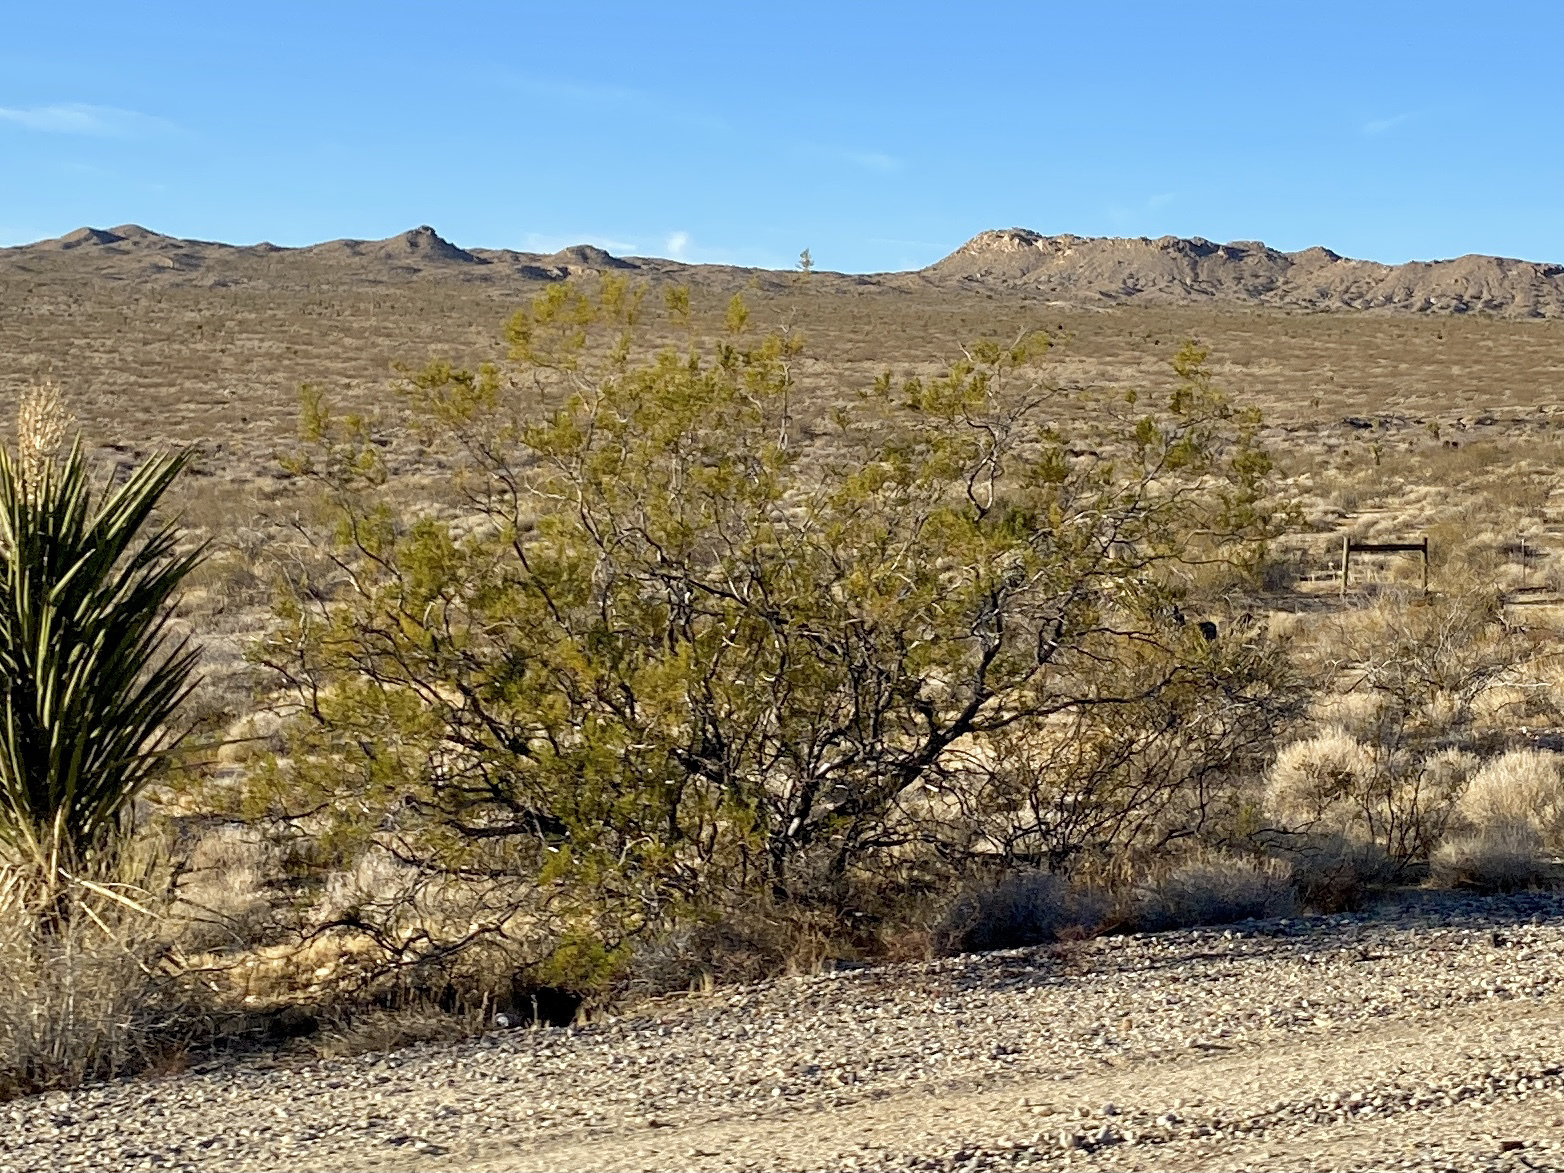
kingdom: Plantae
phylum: Tracheophyta
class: Magnoliopsida
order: Zygophyllales
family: Zygophyllaceae
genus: Larrea
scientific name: Larrea tridentata
